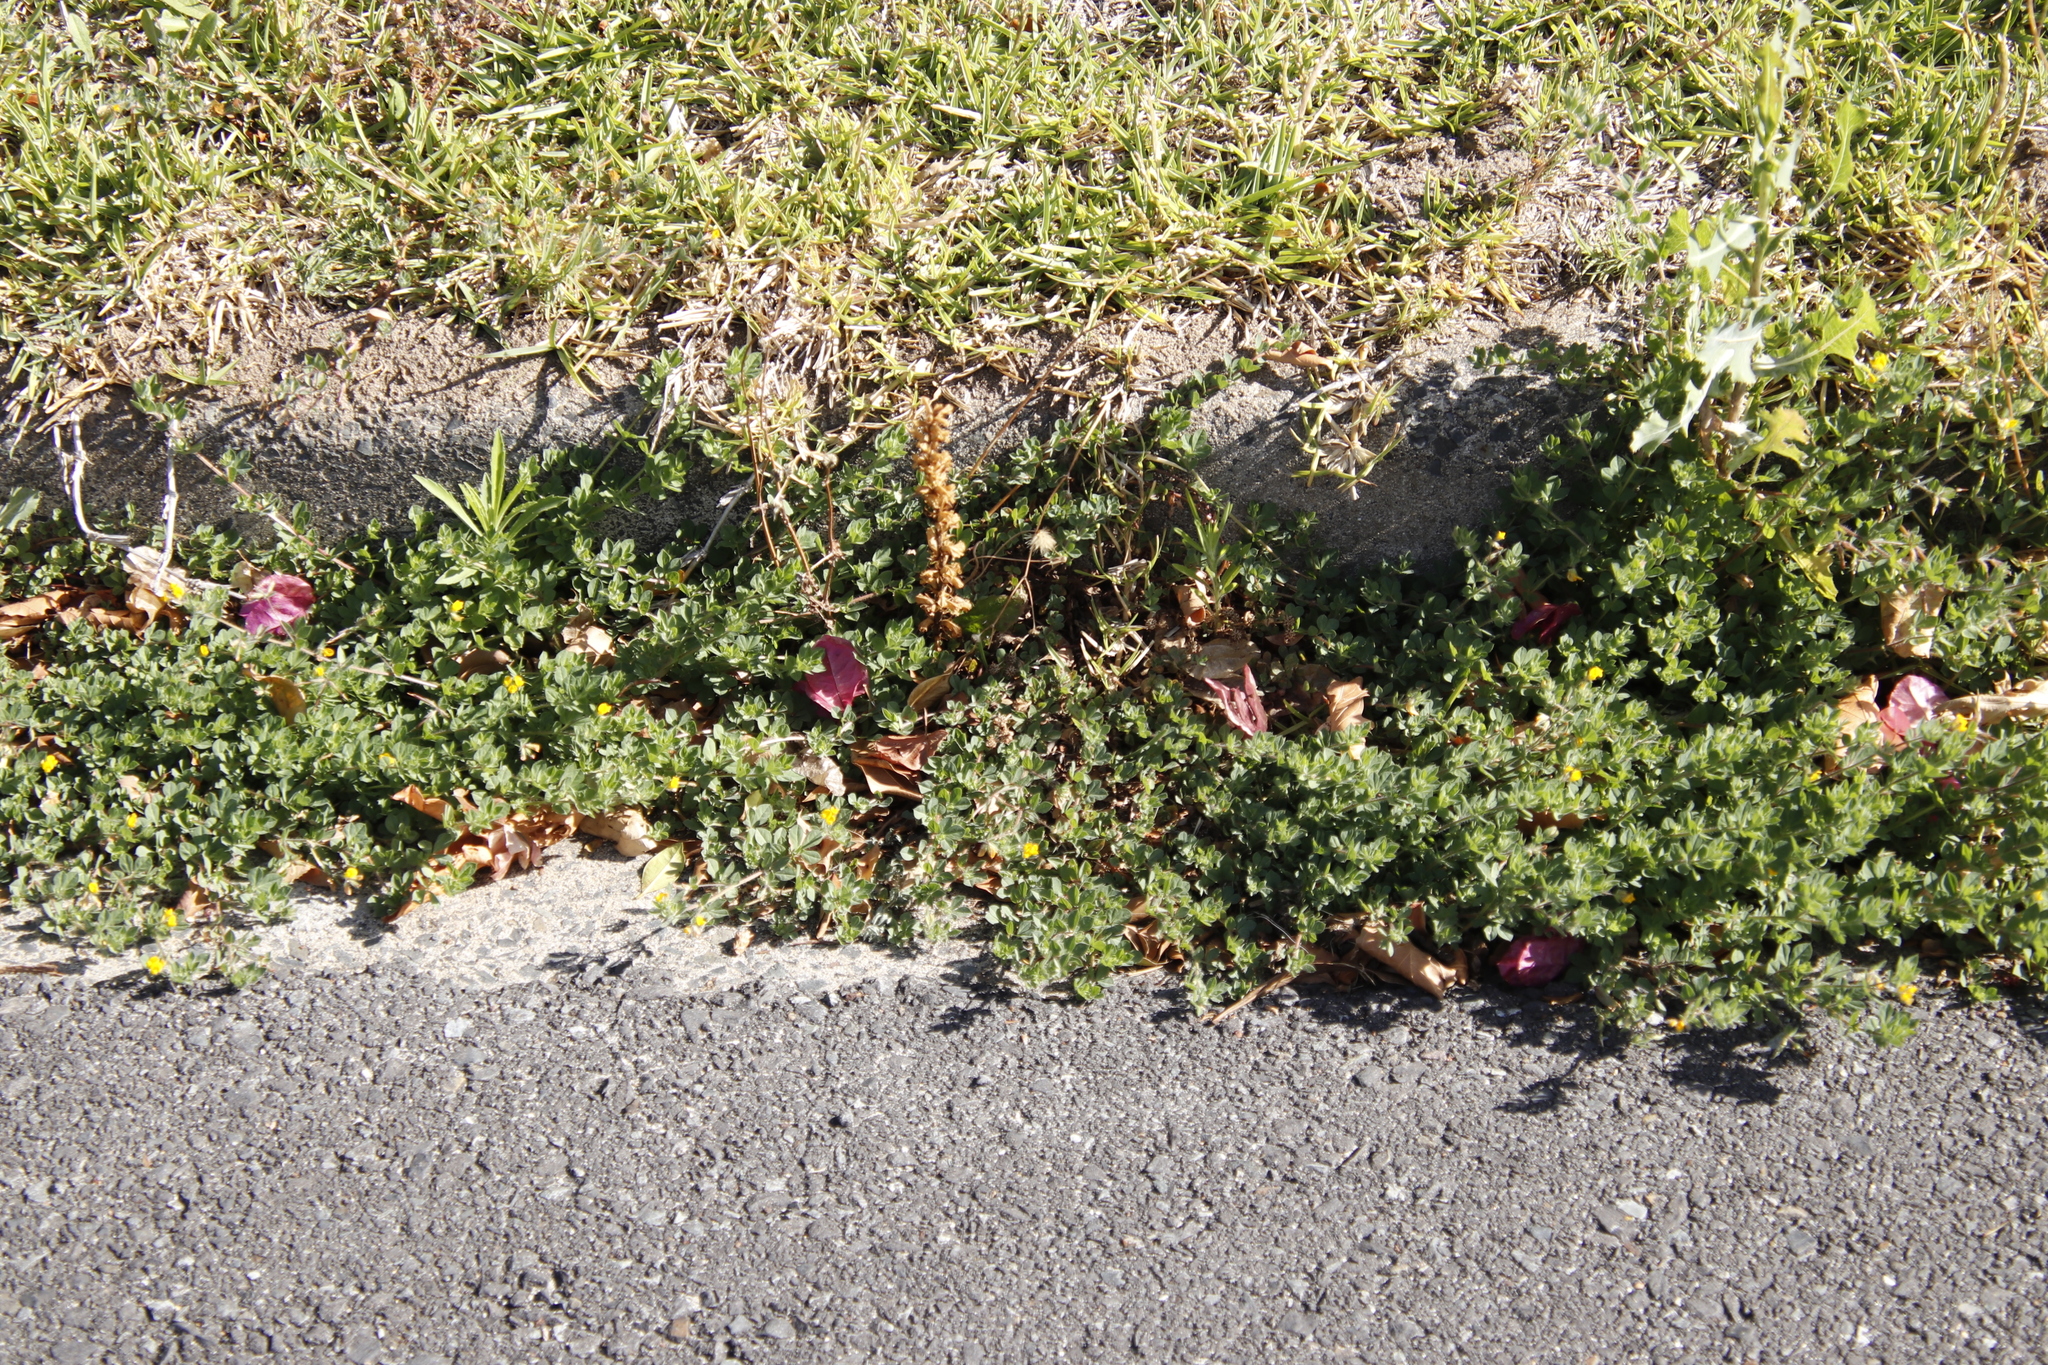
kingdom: Plantae
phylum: Tracheophyta
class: Magnoliopsida
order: Fabales
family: Fabaceae
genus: Lotus
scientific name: Lotus subbiflorus
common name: Hairy bird's-foot trefoil
